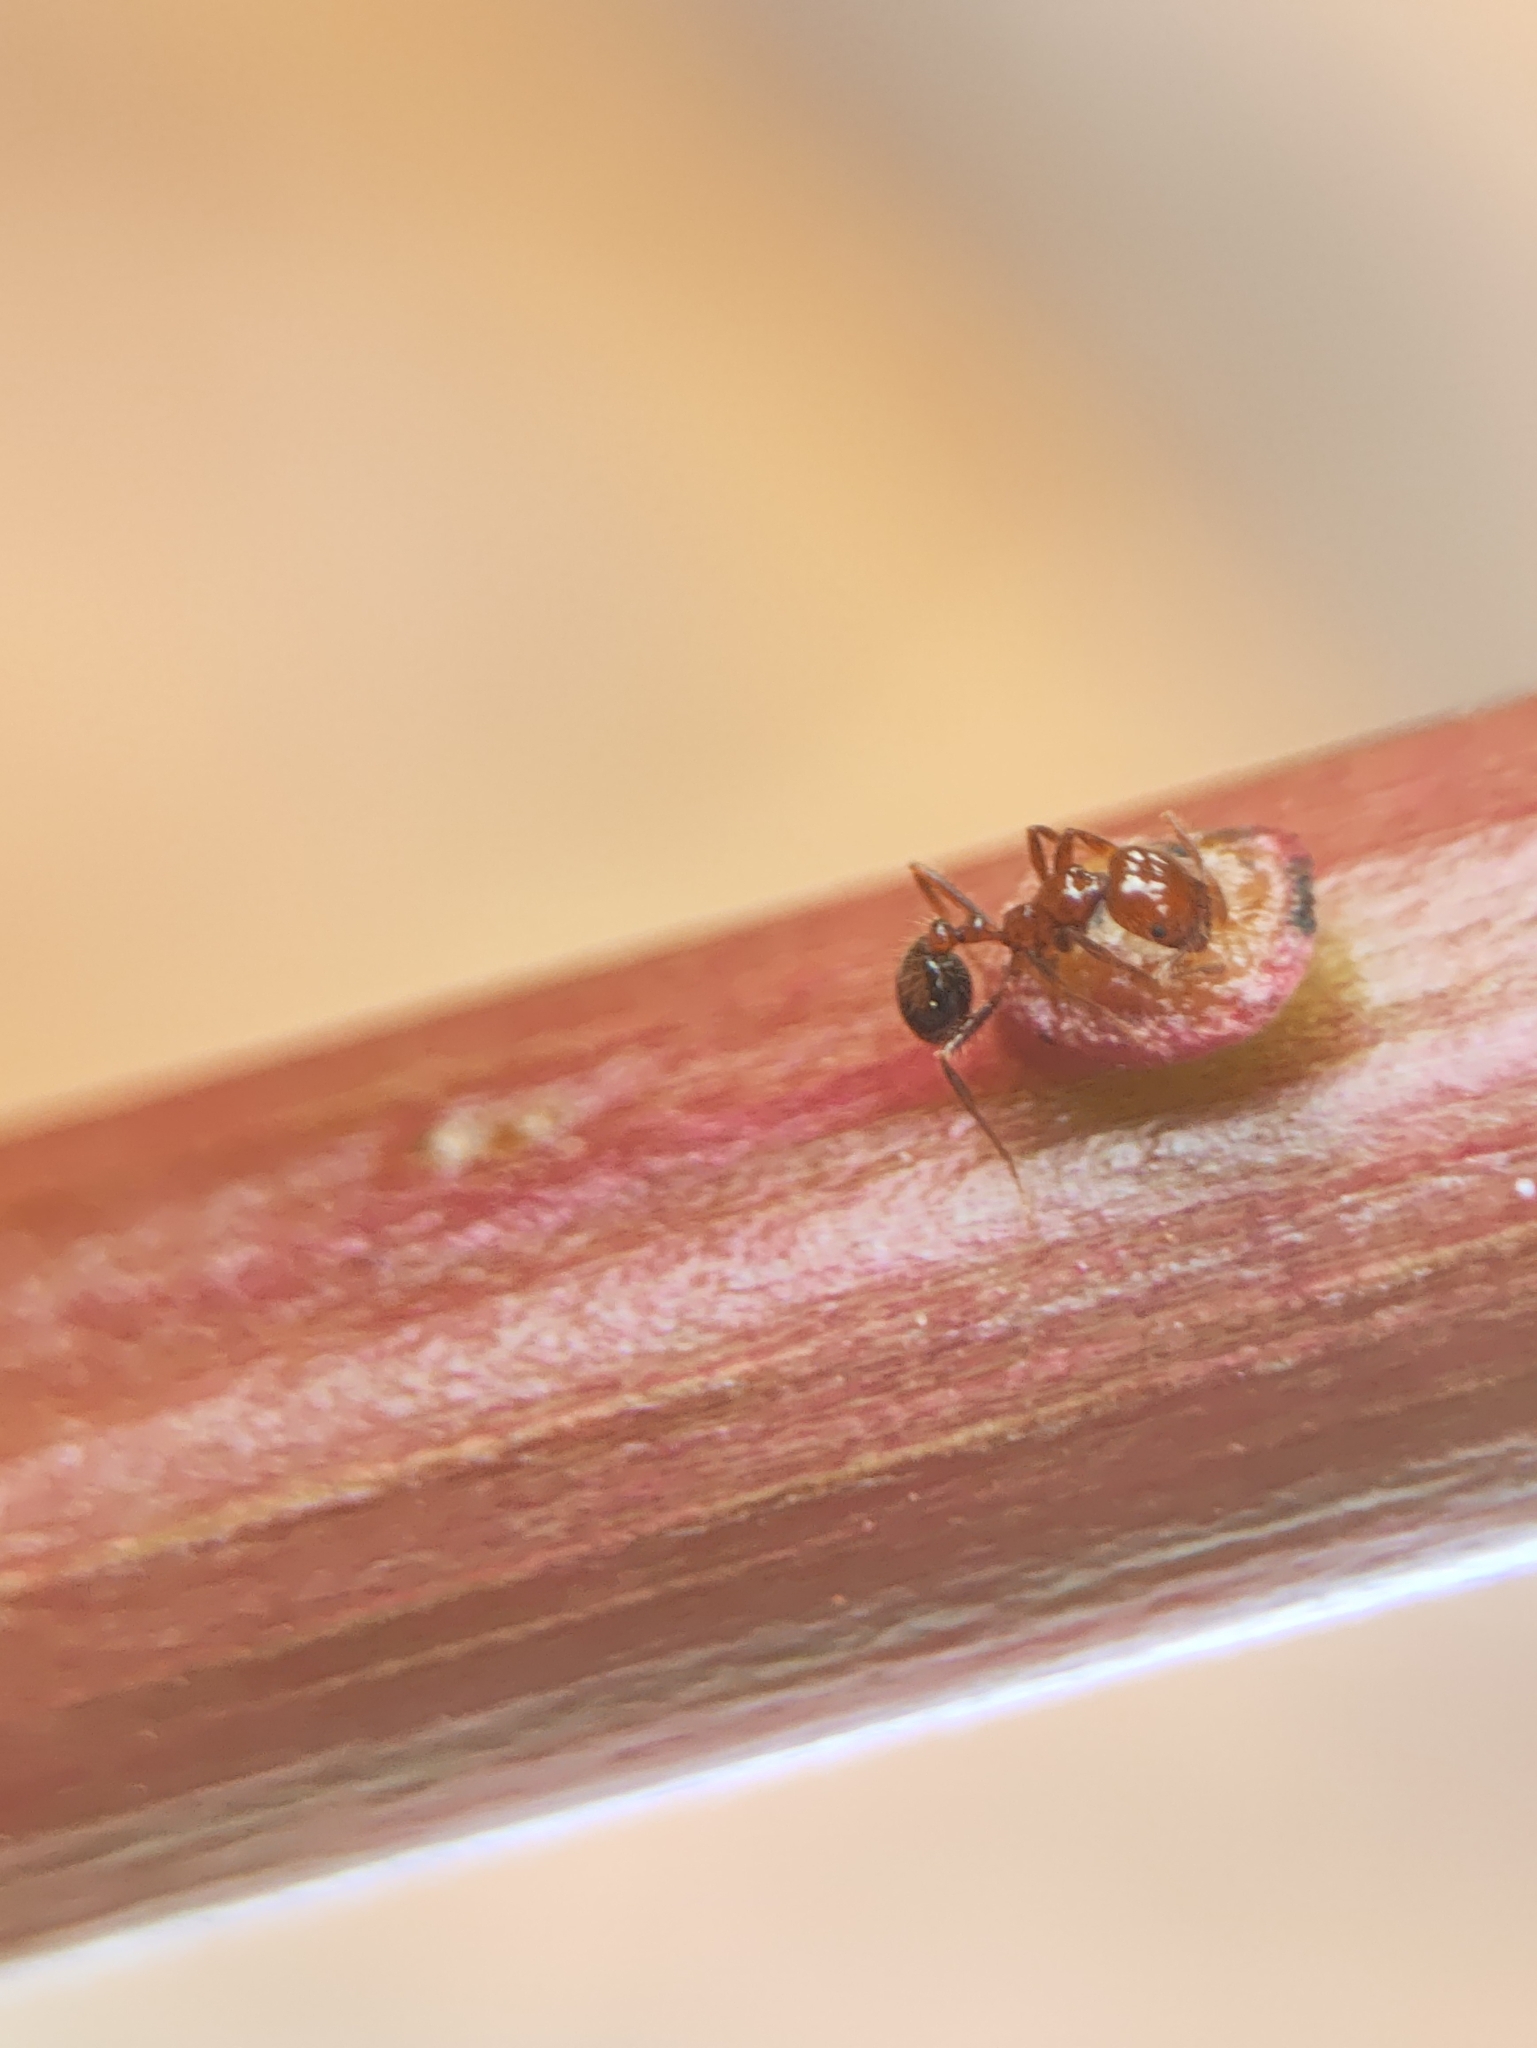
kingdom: Animalia
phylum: Arthropoda
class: Insecta
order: Hymenoptera
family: Formicidae
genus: Solenopsis
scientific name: Solenopsis geminata
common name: Tropical fire ant
